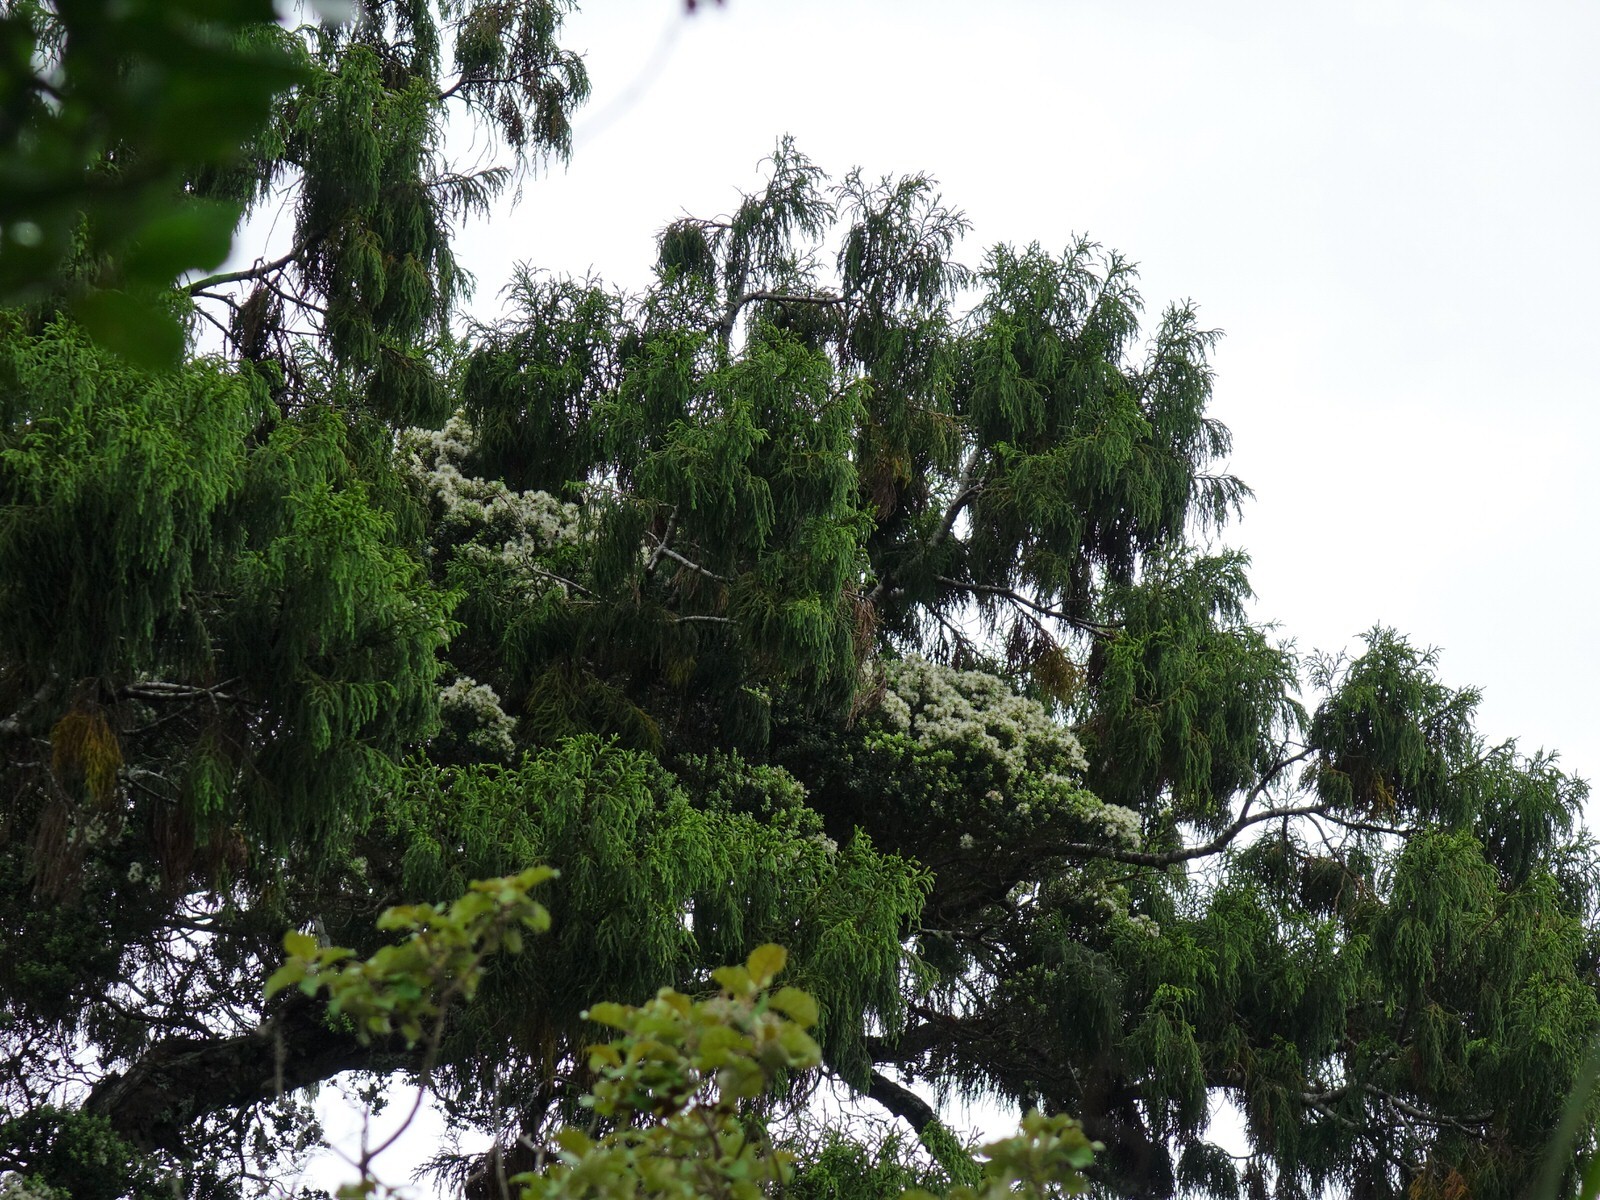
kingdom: Plantae
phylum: Tracheophyta
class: Magnoliopsida
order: Myrtales
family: Myrtaceae
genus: Metrosideros
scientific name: Metrosideros diffusa
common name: Small ratavine
